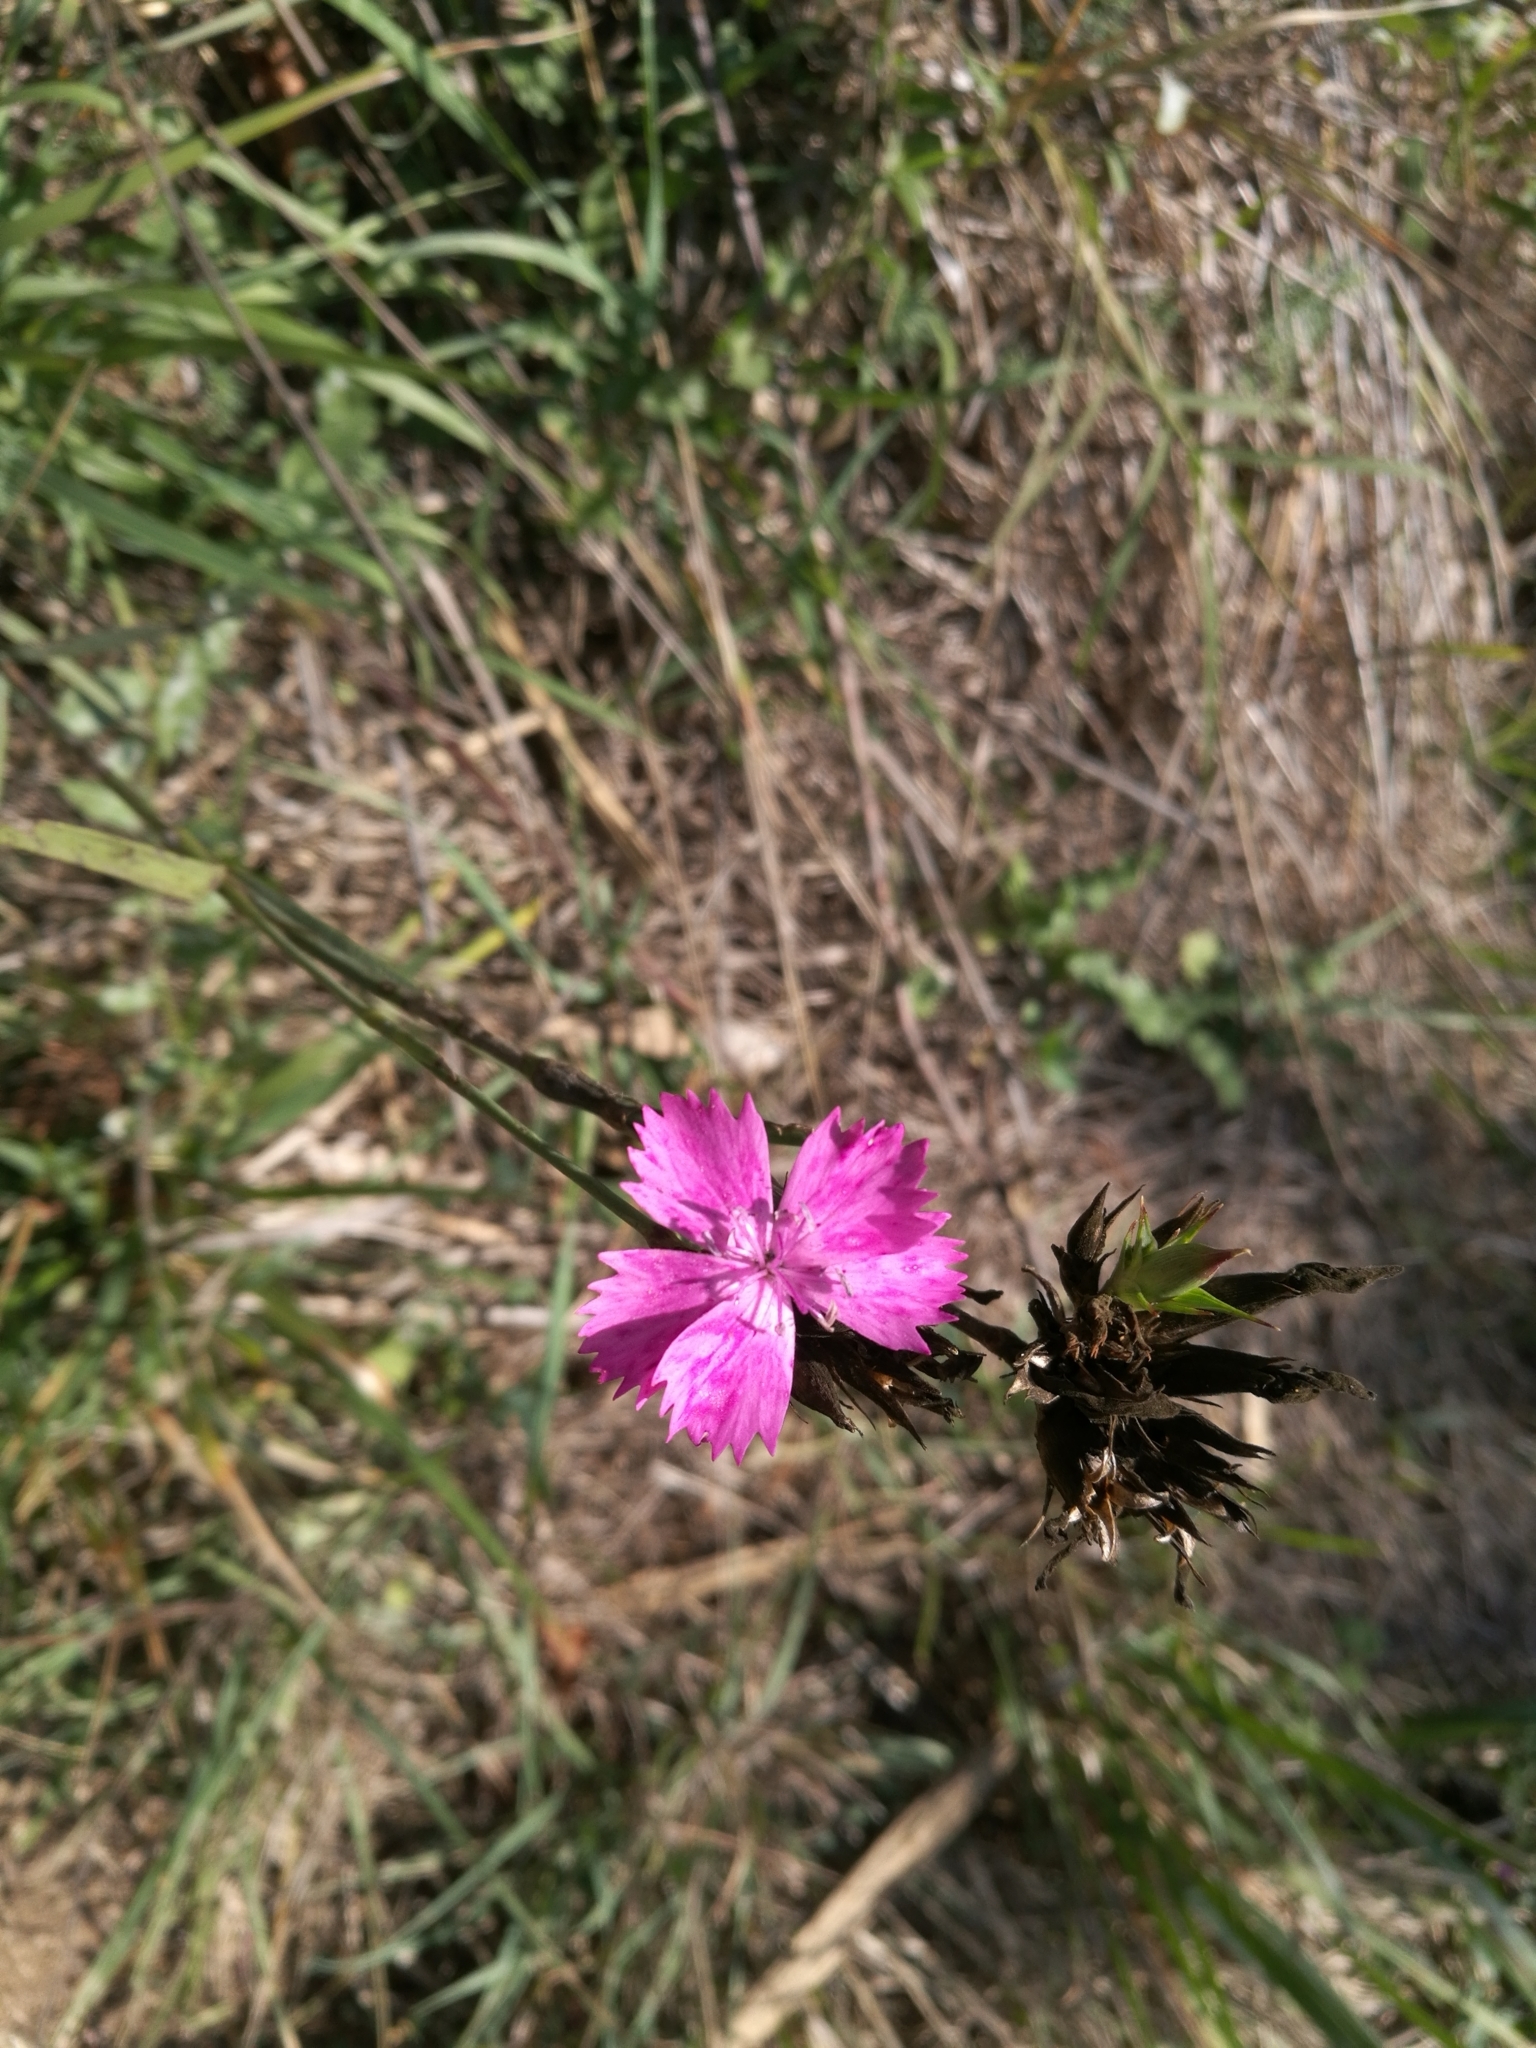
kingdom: Plantae
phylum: Tracheophyta
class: Magnoliopsida
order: Caryophyllales
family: Caryophyllaceae
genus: Dianthus
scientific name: Dianthus balbisii
